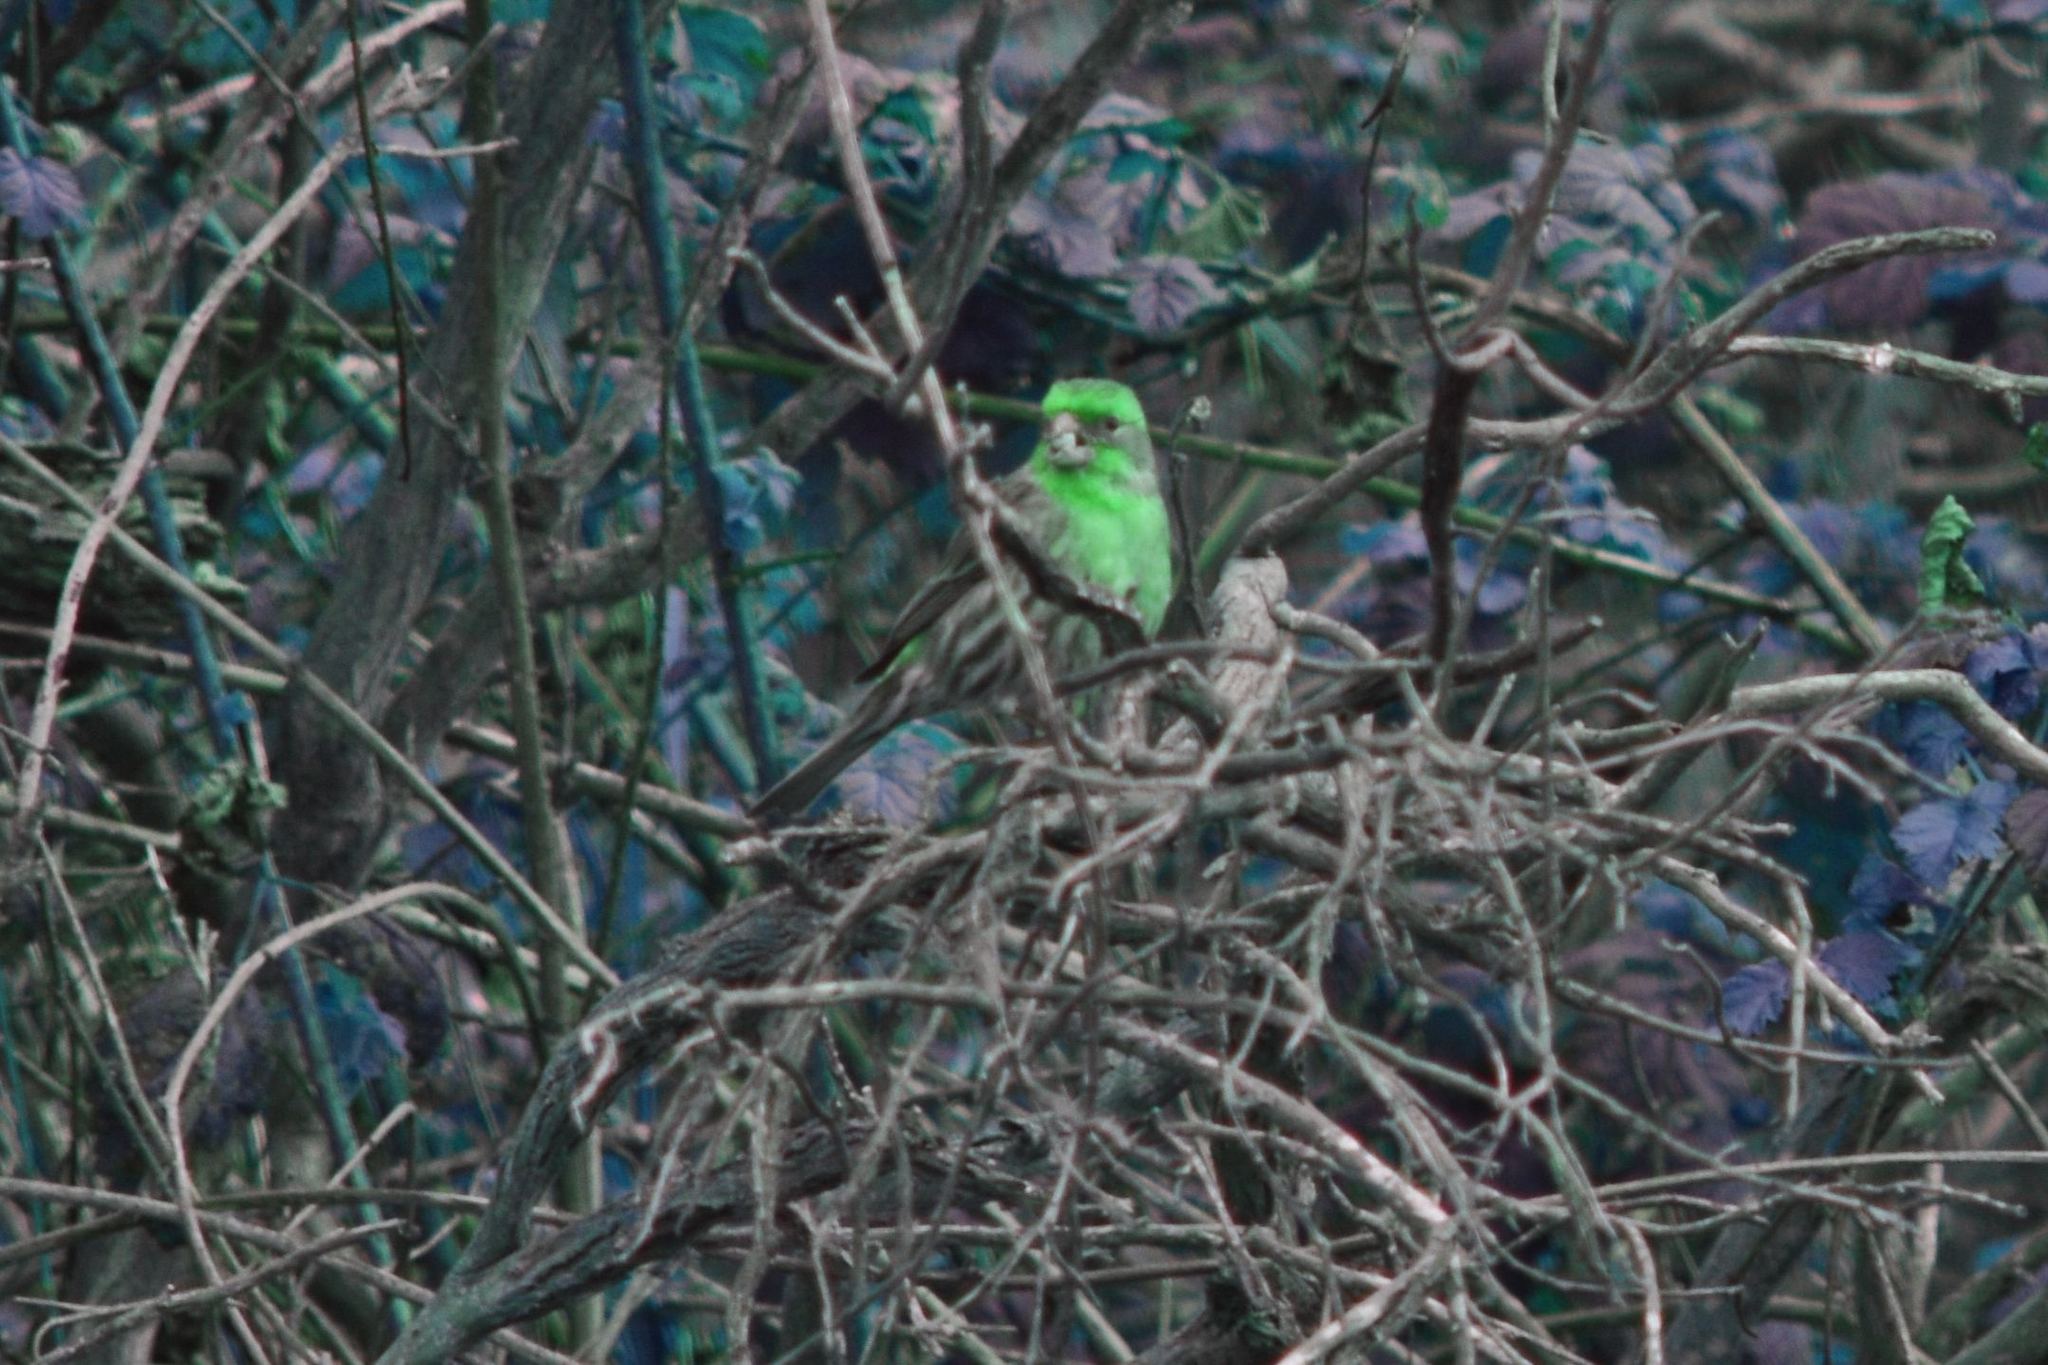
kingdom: Animalia
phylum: Chordata
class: Aves
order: Passeriformes
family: Fringillidae
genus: Haemorhous
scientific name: Haemorhous mexicanus
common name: House finch
